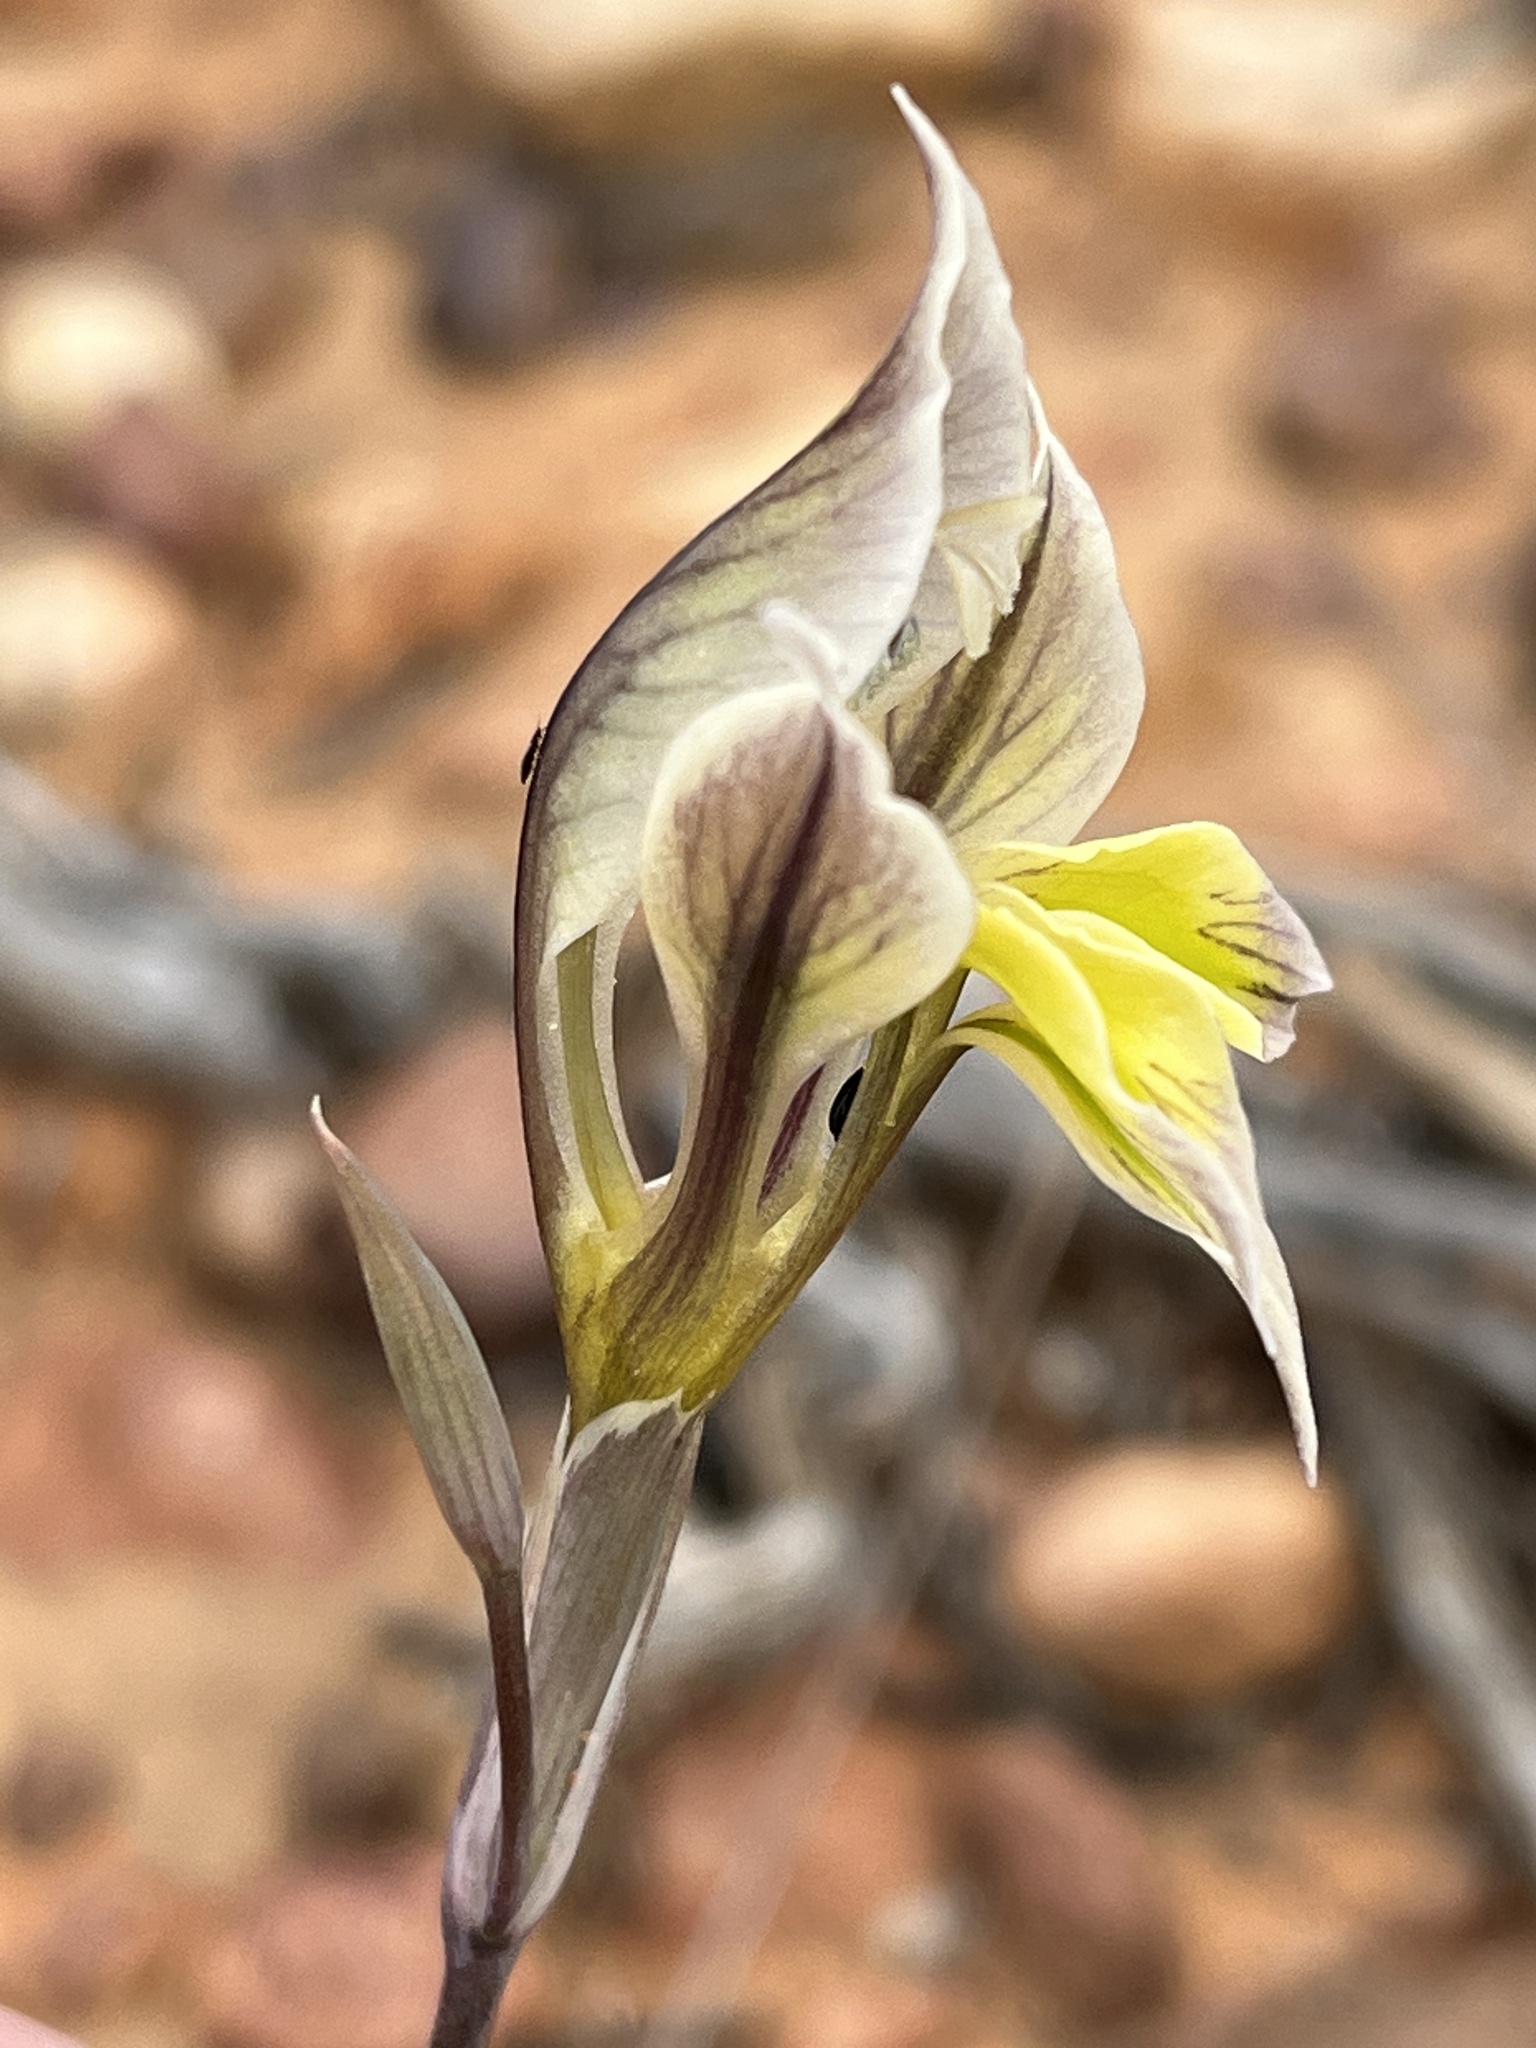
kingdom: Plantae
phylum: Tracheophyta
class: Liliopsida
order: Asparagales
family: Iridaceae
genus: Gladiolus
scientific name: Gladiolus permeabilis
